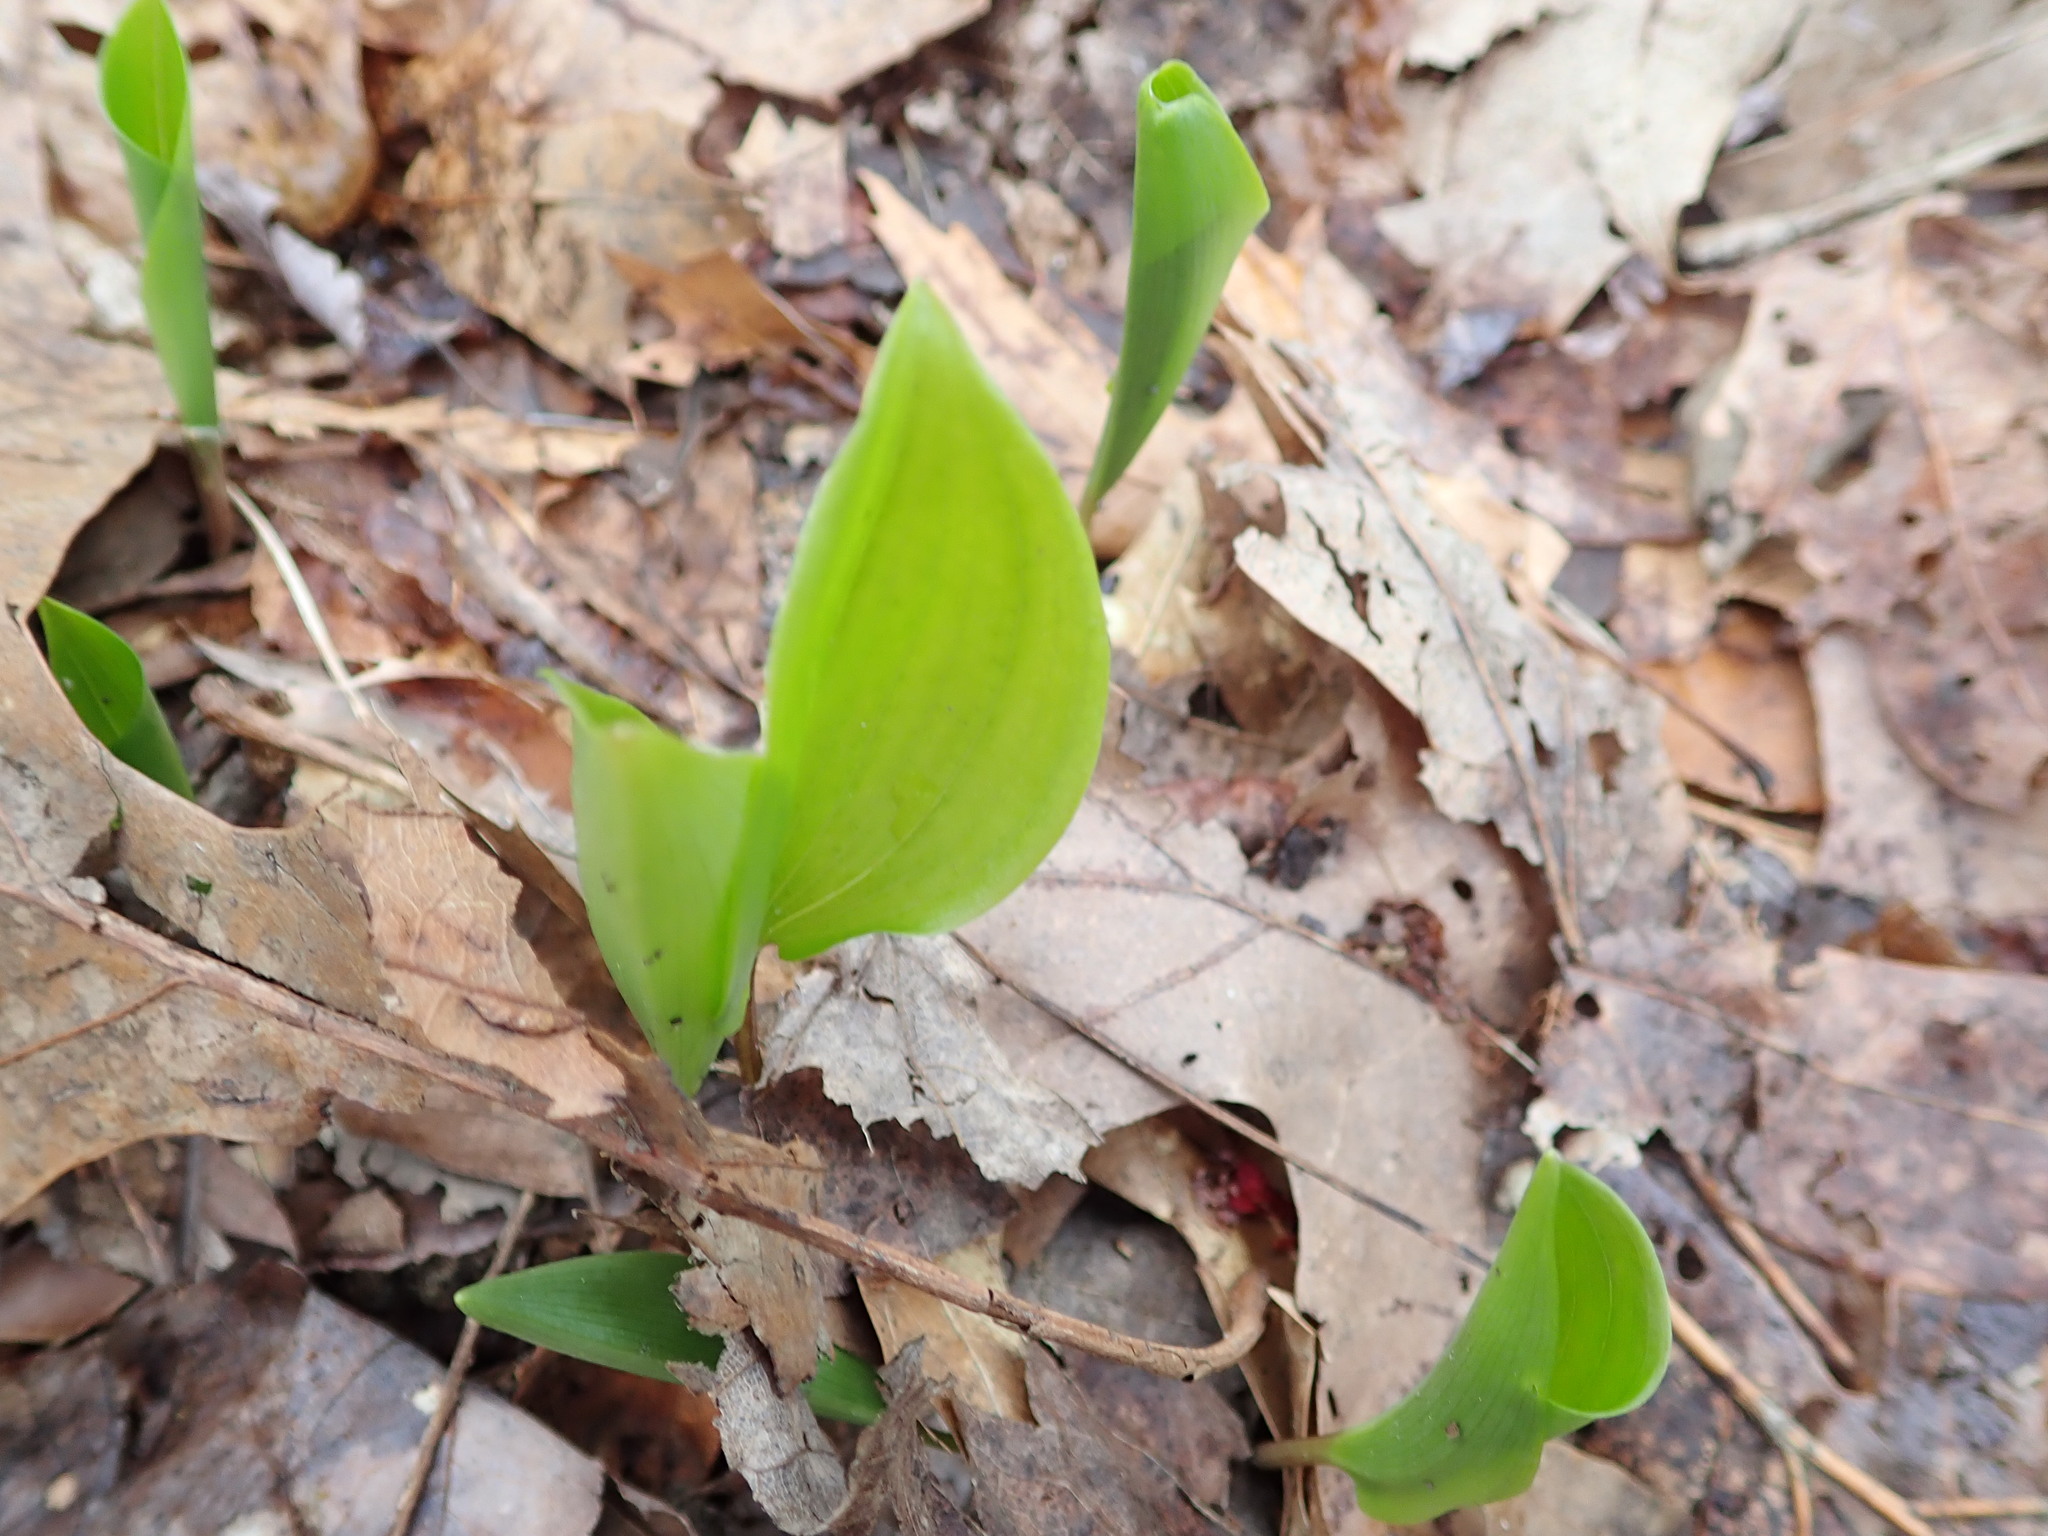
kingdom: Plantae
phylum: Tracheophyta
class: Liliopsida
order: Asparagales
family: Asparagaceae
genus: Maianthemum
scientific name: Maianthemum canadense
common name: False lily-of-the-valley
